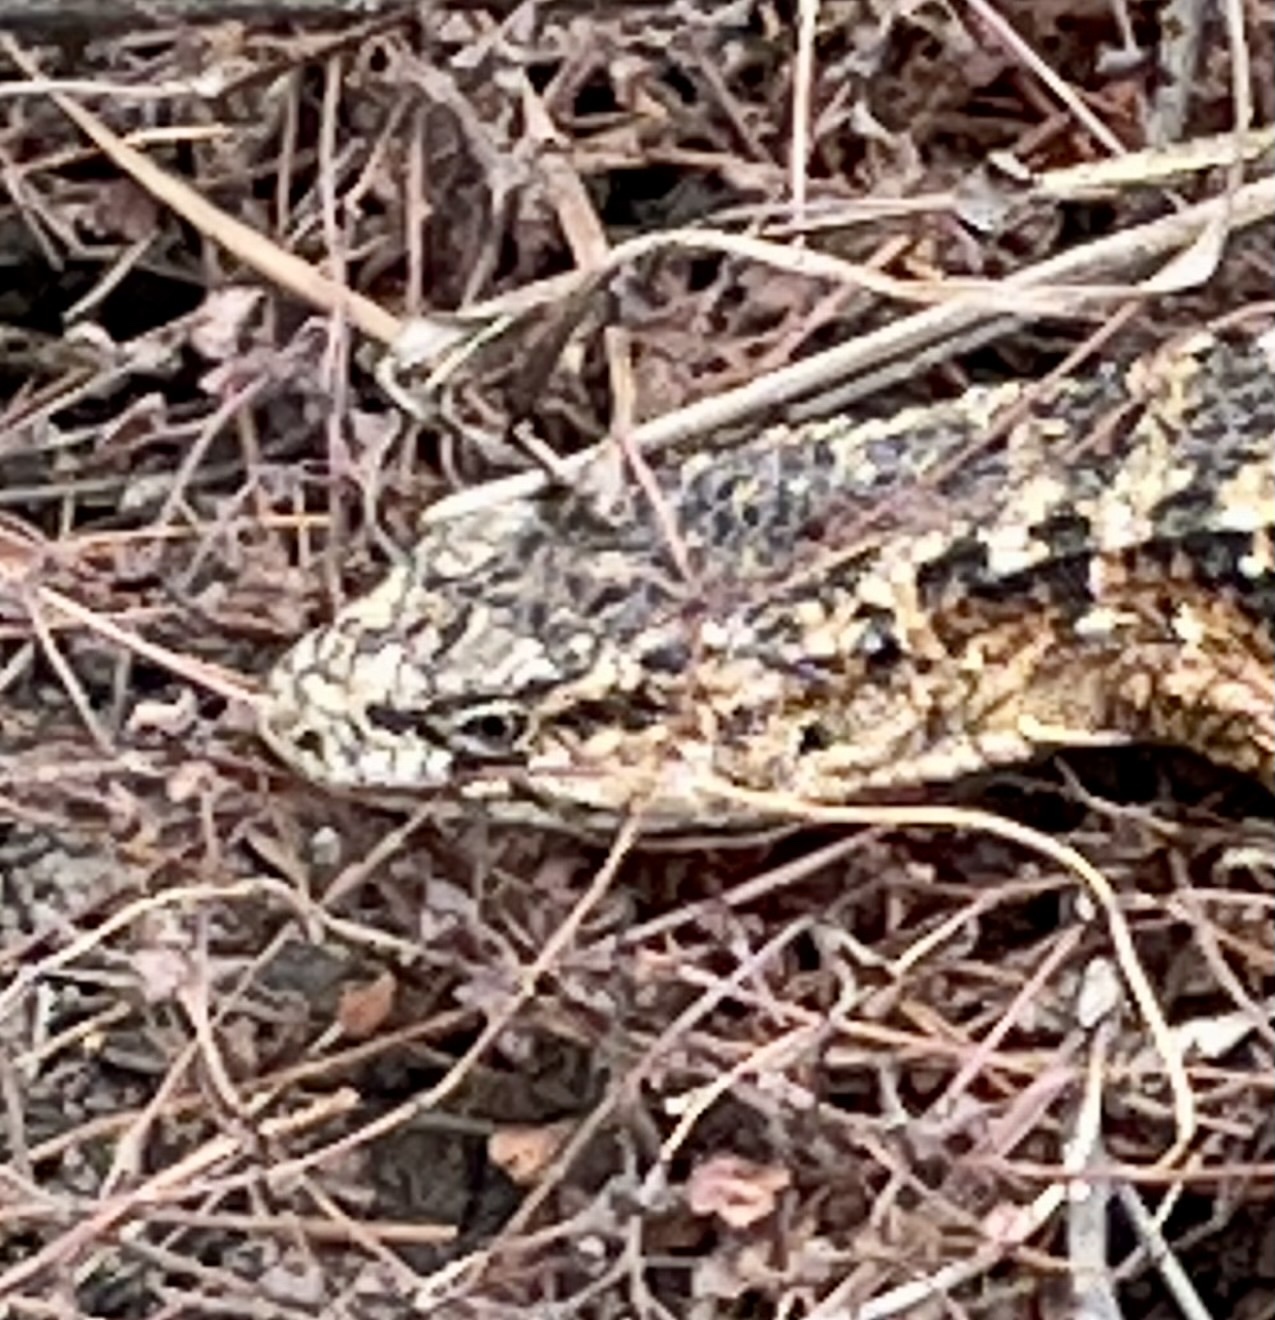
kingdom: Animalia
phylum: Chordata
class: Squamata
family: Anguidae
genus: Elgaria
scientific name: Elgaria coerulea
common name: Northern alligator lizard
